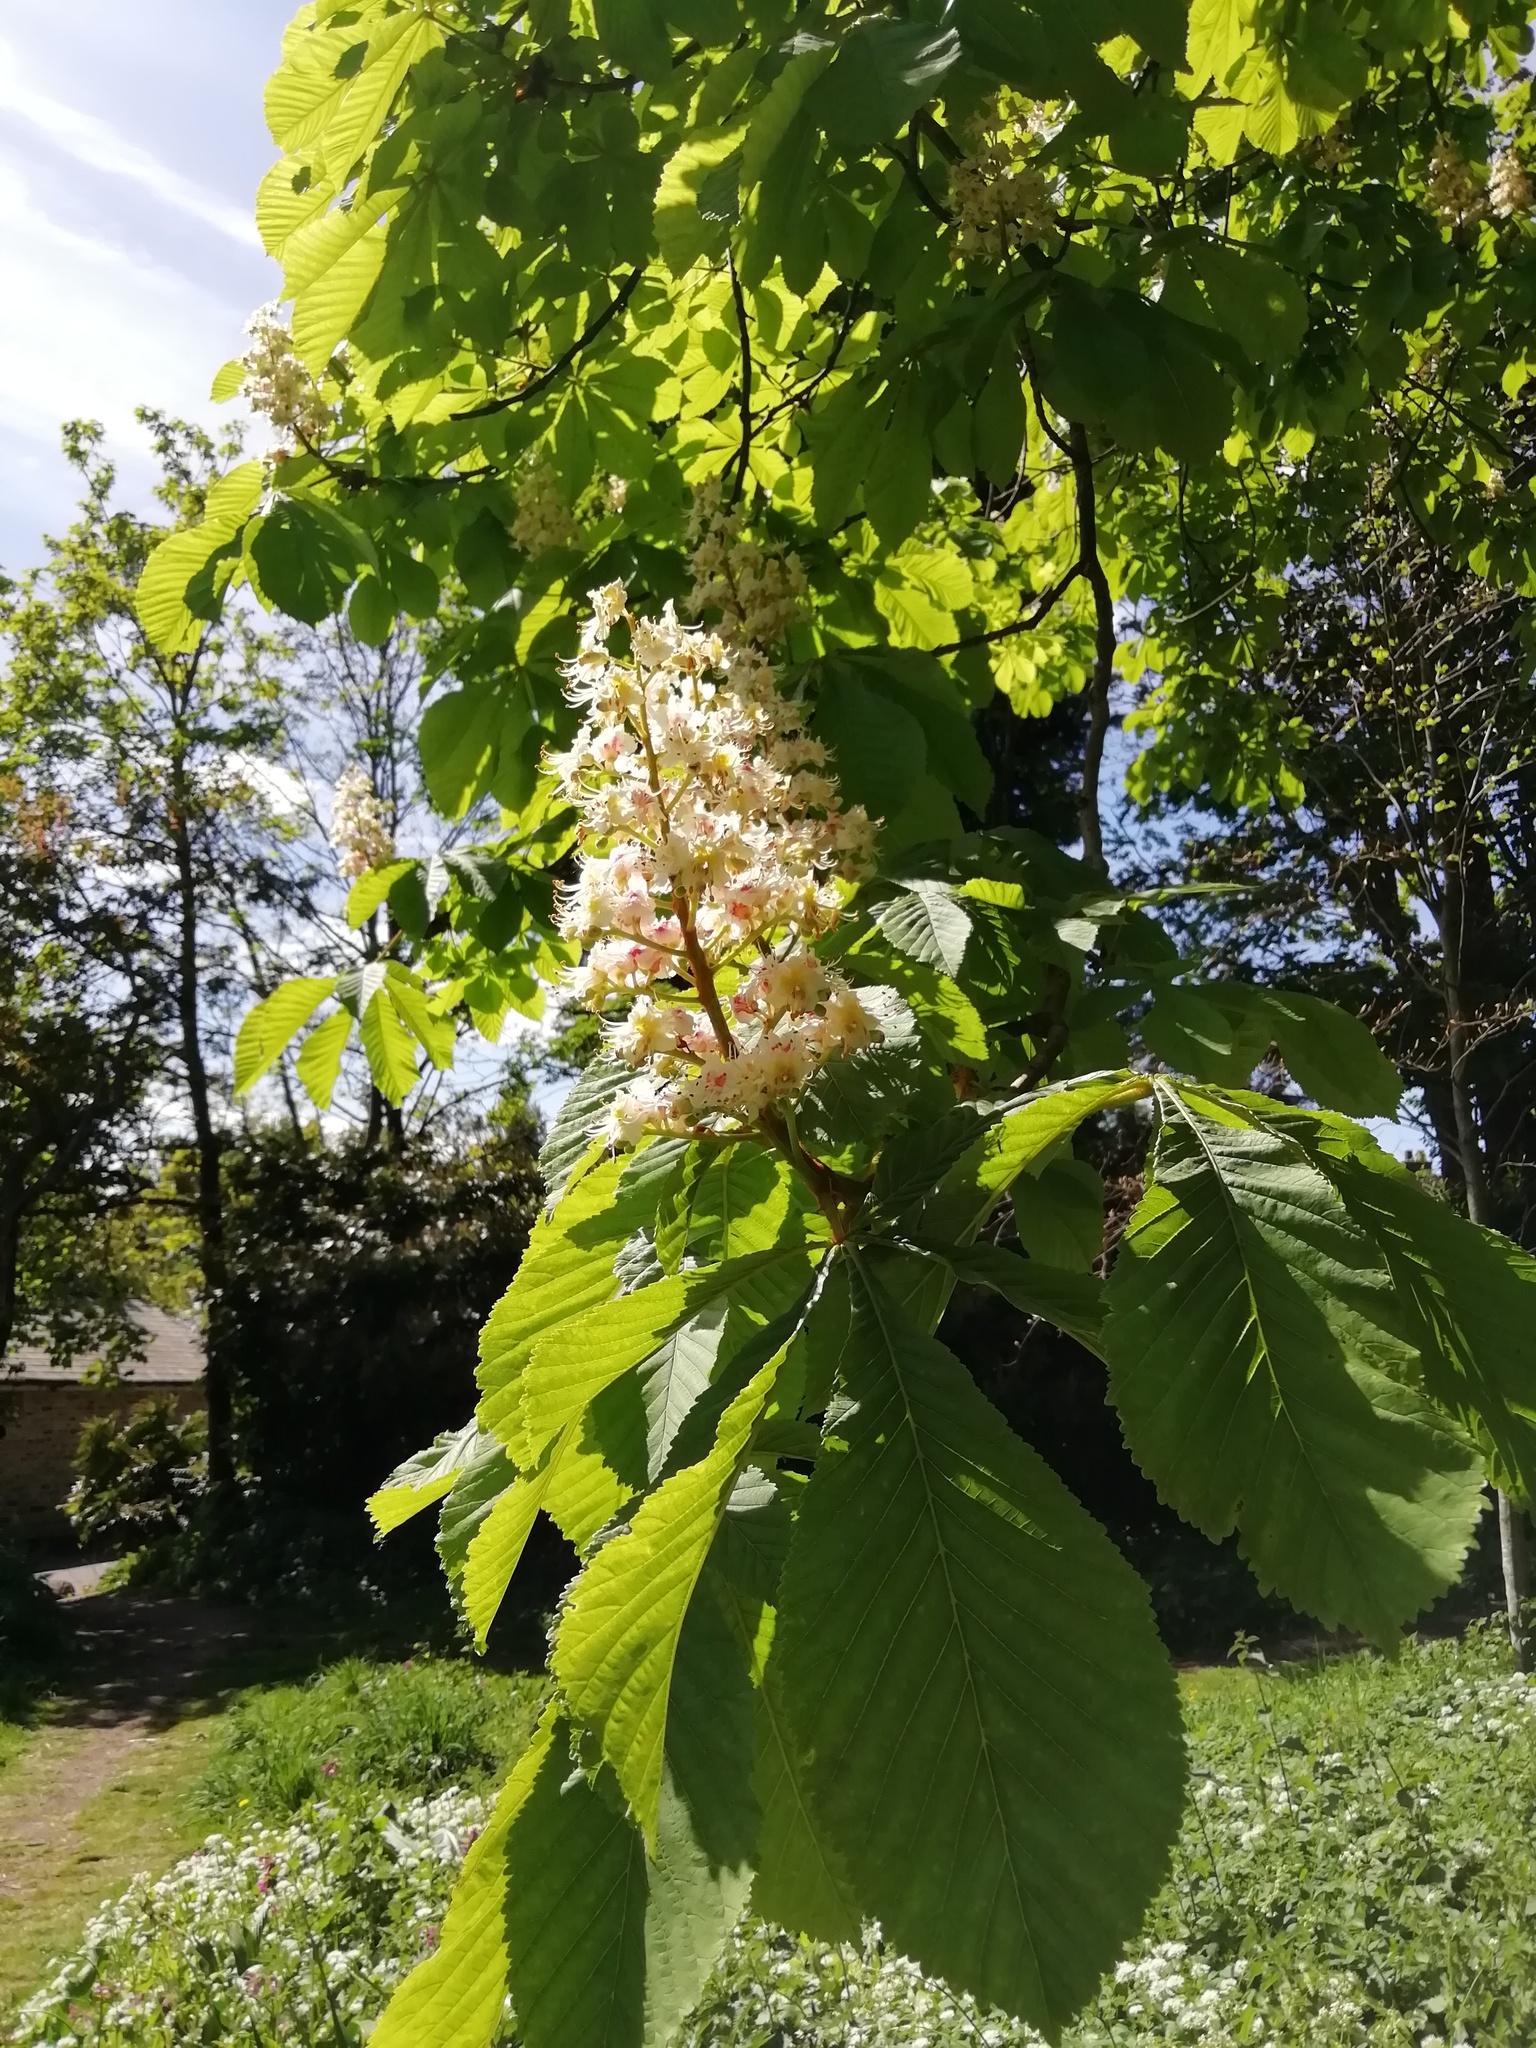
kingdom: Plantae
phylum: Tracheophyta
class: Magnoliopsida
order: Sapindales
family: Sapindaceae
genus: Aesculus
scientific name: Aesculus hippocastanum
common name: Horse-chestnut
